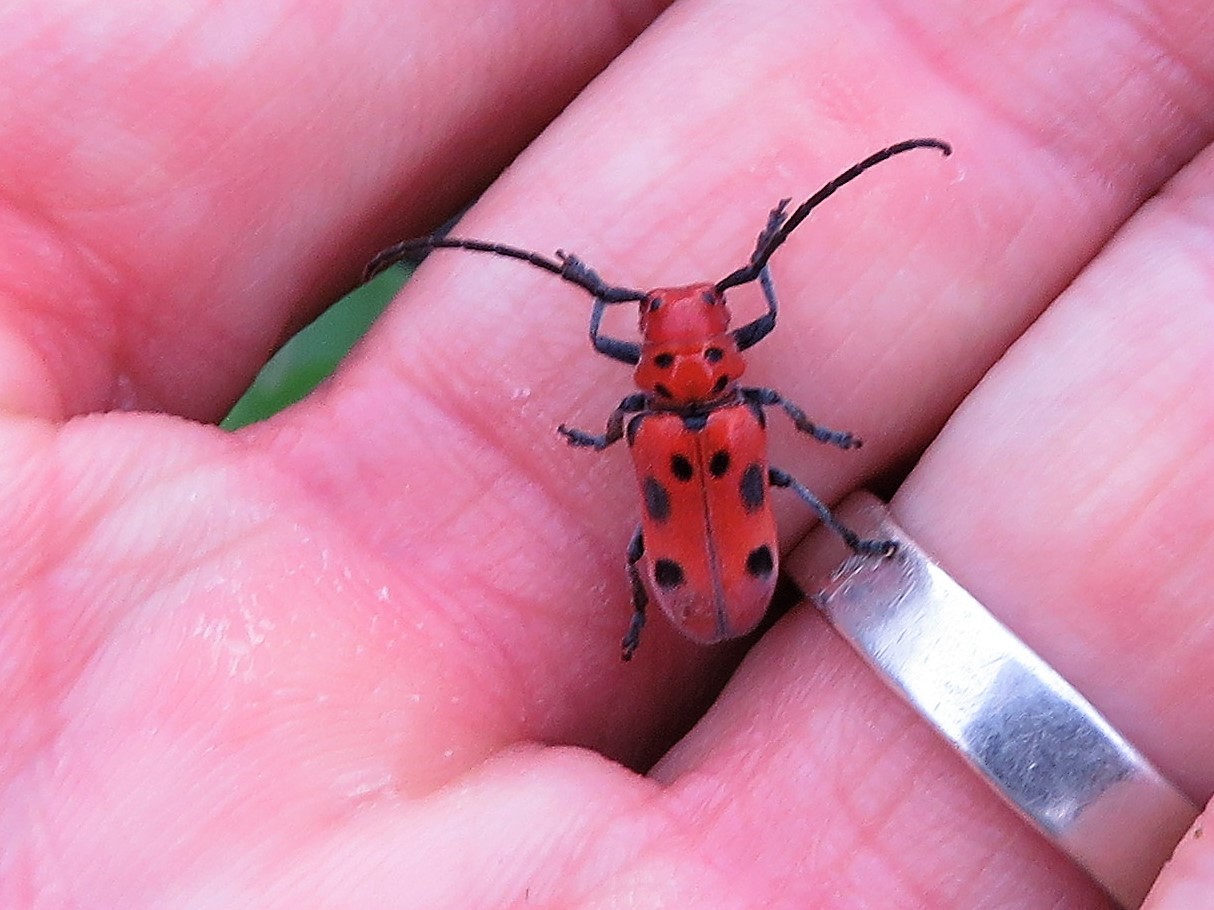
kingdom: Animalia
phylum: Arthropoda
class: Insecta
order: Coleoptera
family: Cerambycidae
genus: Tetraopes
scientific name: Tetraopes tetrophthalmus
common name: Red milkweed beetle
